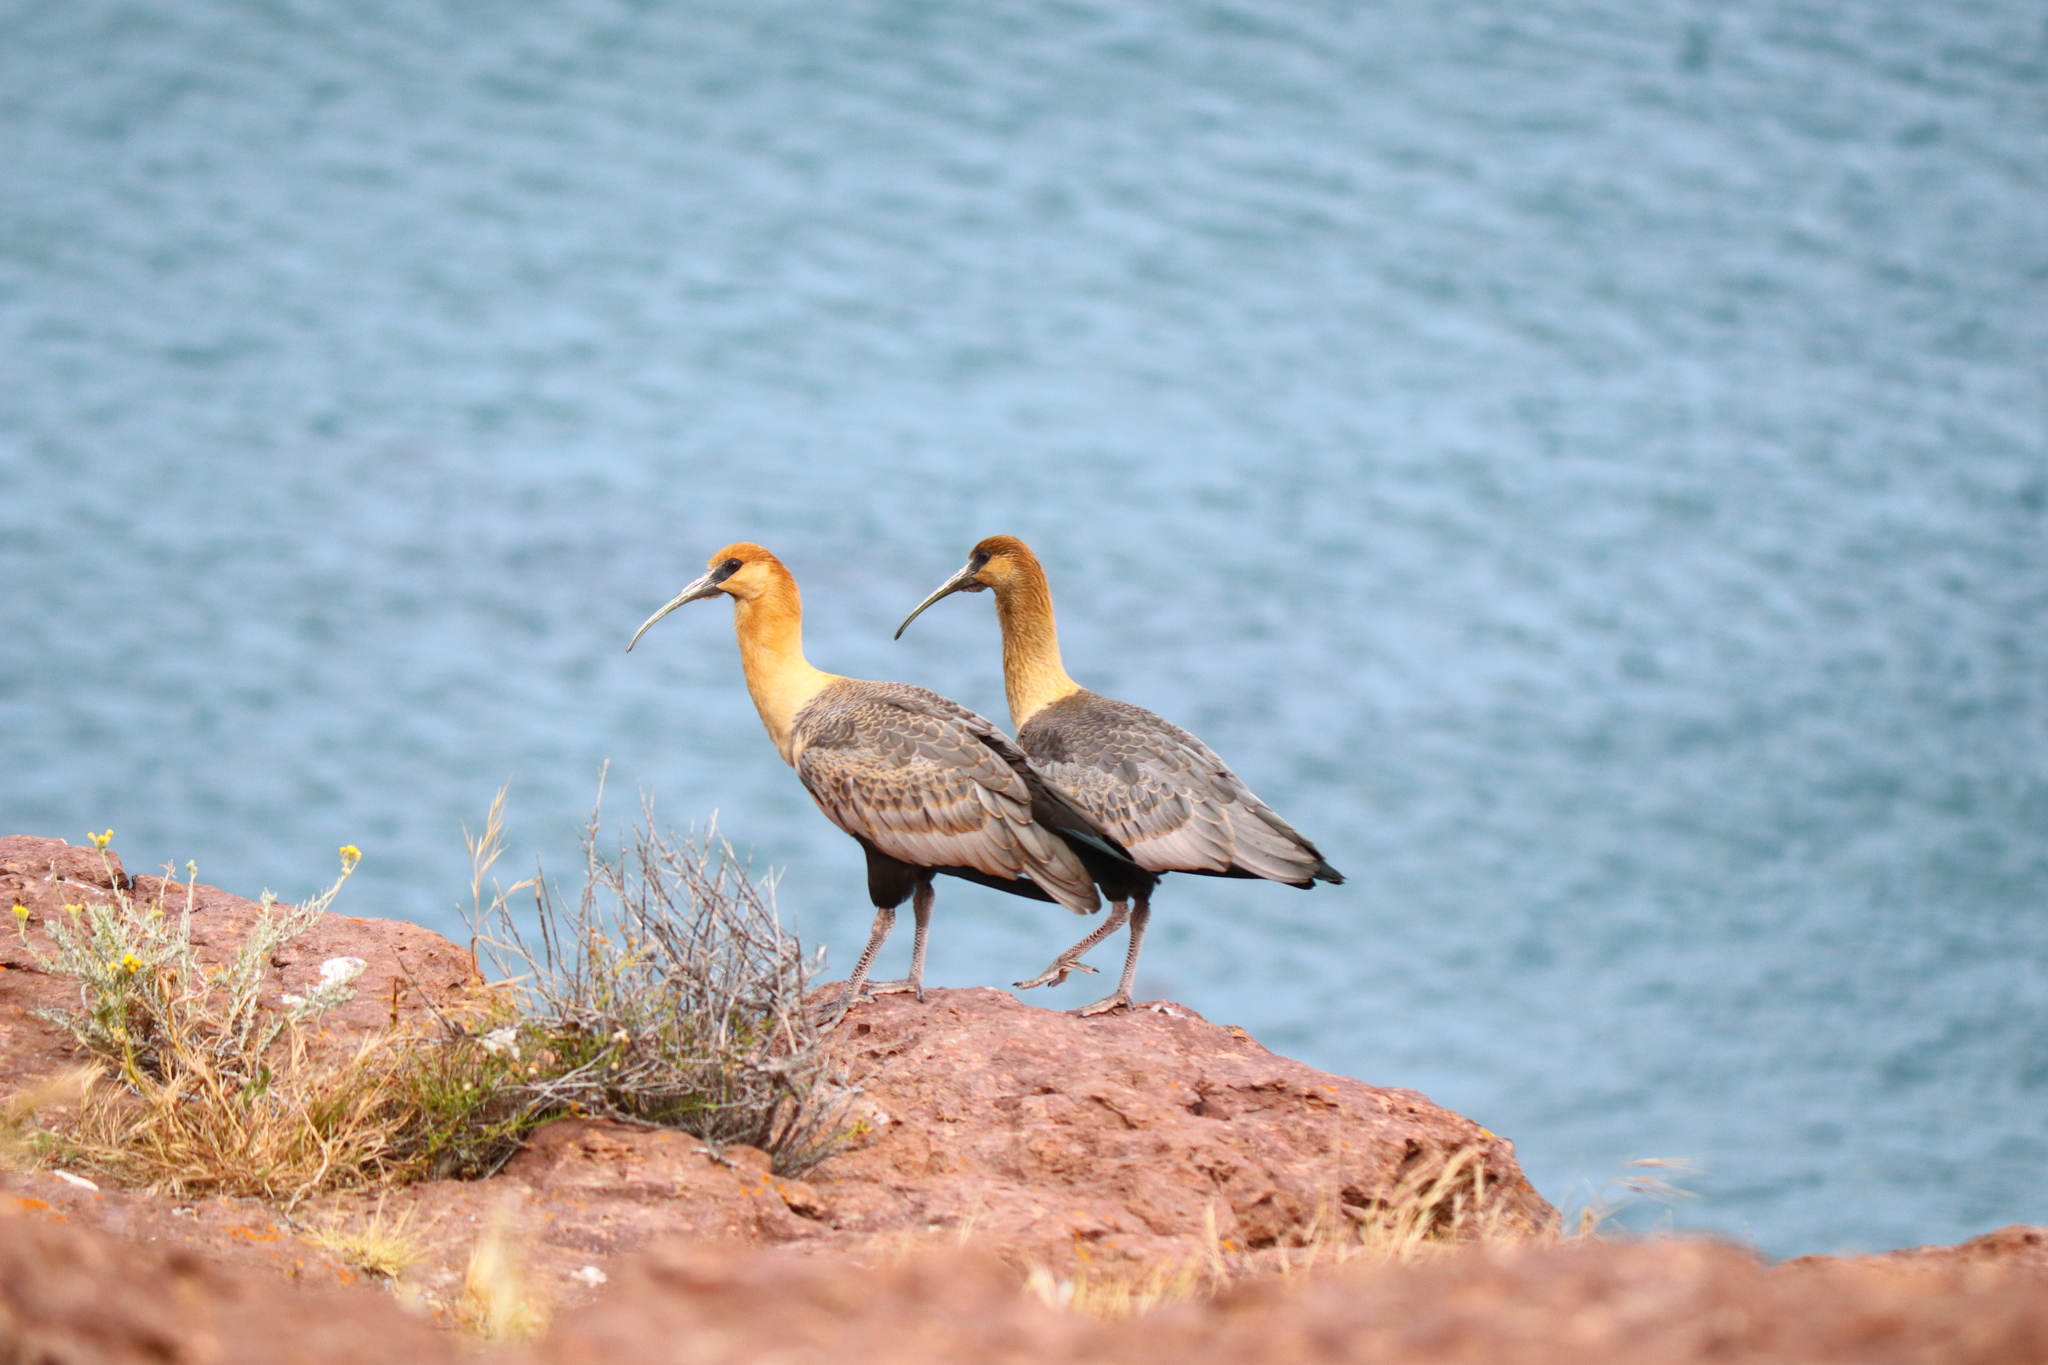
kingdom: Animalia
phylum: Chordata
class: Aves
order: Pelecaniformes
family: Threskiornithidae
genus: Theristicus
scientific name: Theristicus melanopis
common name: Black-faced ibis
